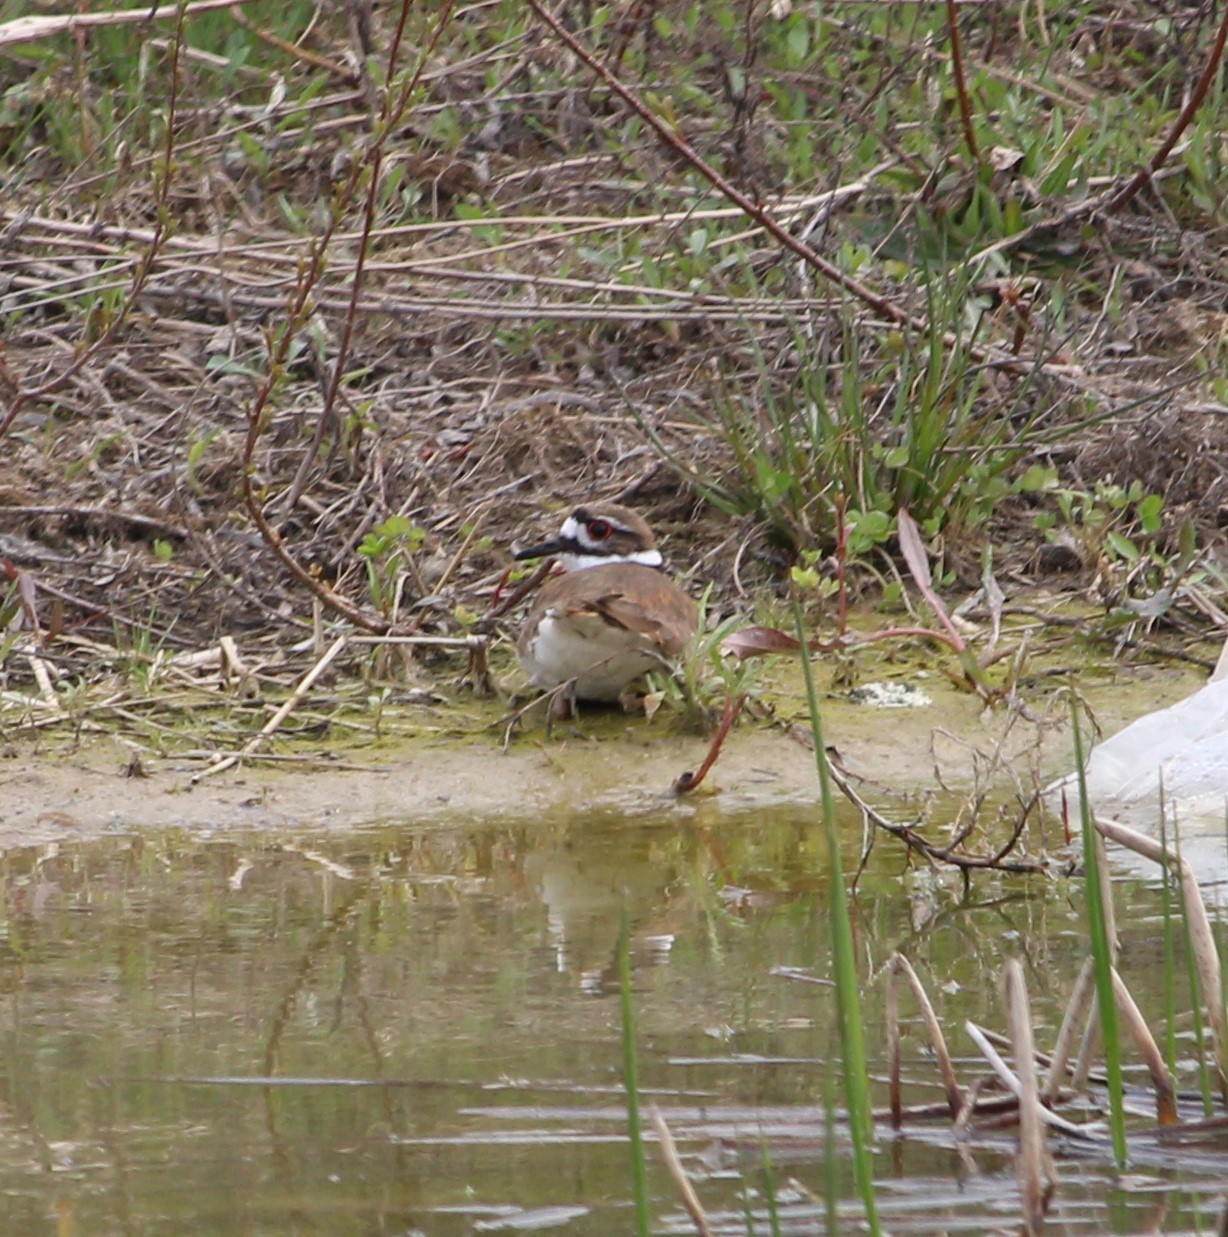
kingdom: Animalia
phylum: Chordata
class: Aves
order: Charadriiformes
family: Charadriidae
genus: Charadrius
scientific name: Charadrius vociferus
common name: Killdeer
